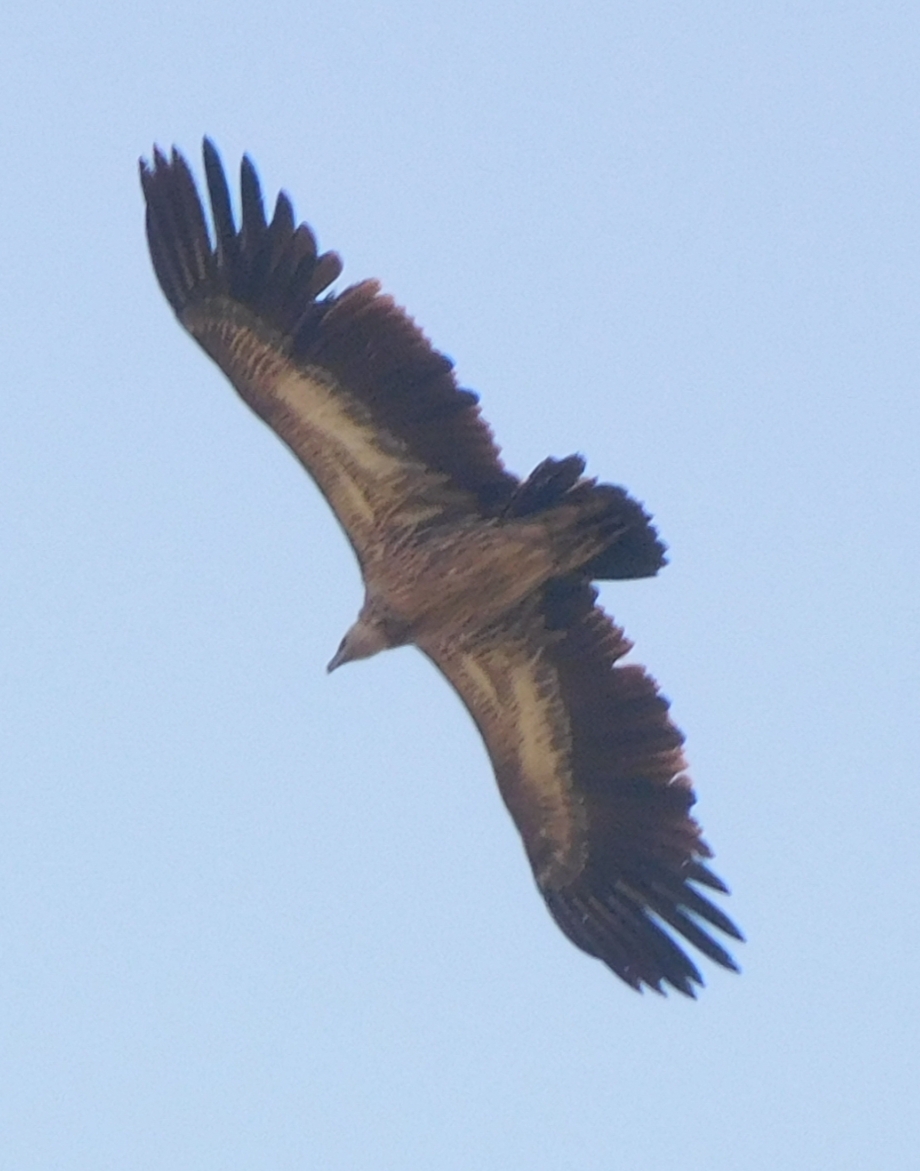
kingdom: Animalia
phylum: Chordata
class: Aves
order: Accipitriformes
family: Accipitridae
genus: Gyps
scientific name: Gyps himalayensis
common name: Himalayan griffon
